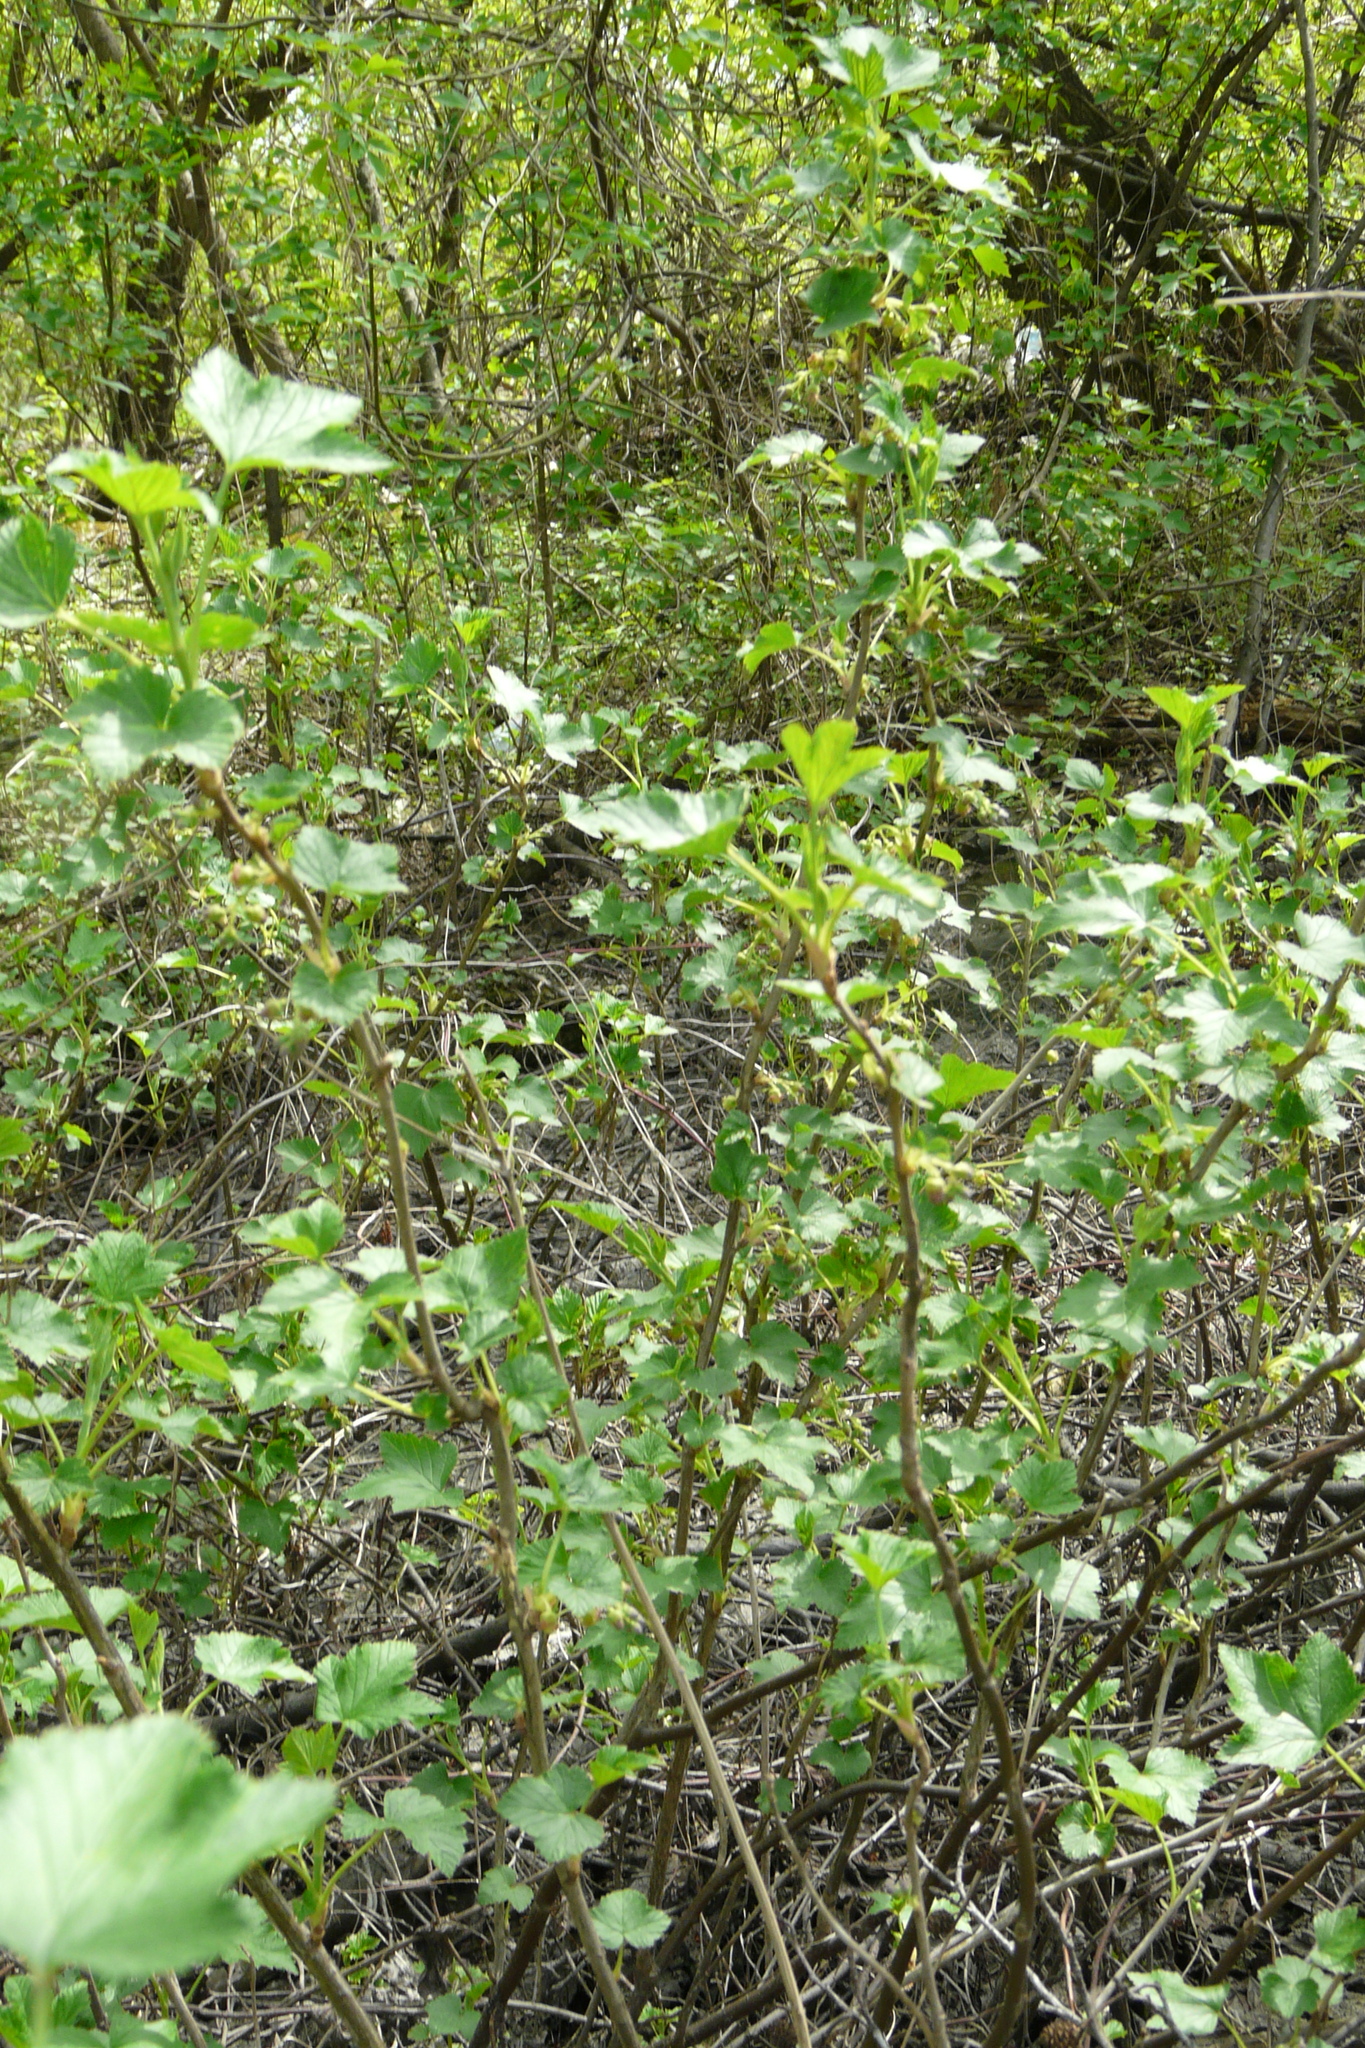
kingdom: Plantae
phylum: Tracheophyta
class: Magnoliopsida
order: Saxifragales
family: Grossulariaceae
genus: Ribes
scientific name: Ribes nigrum
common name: Black currant
